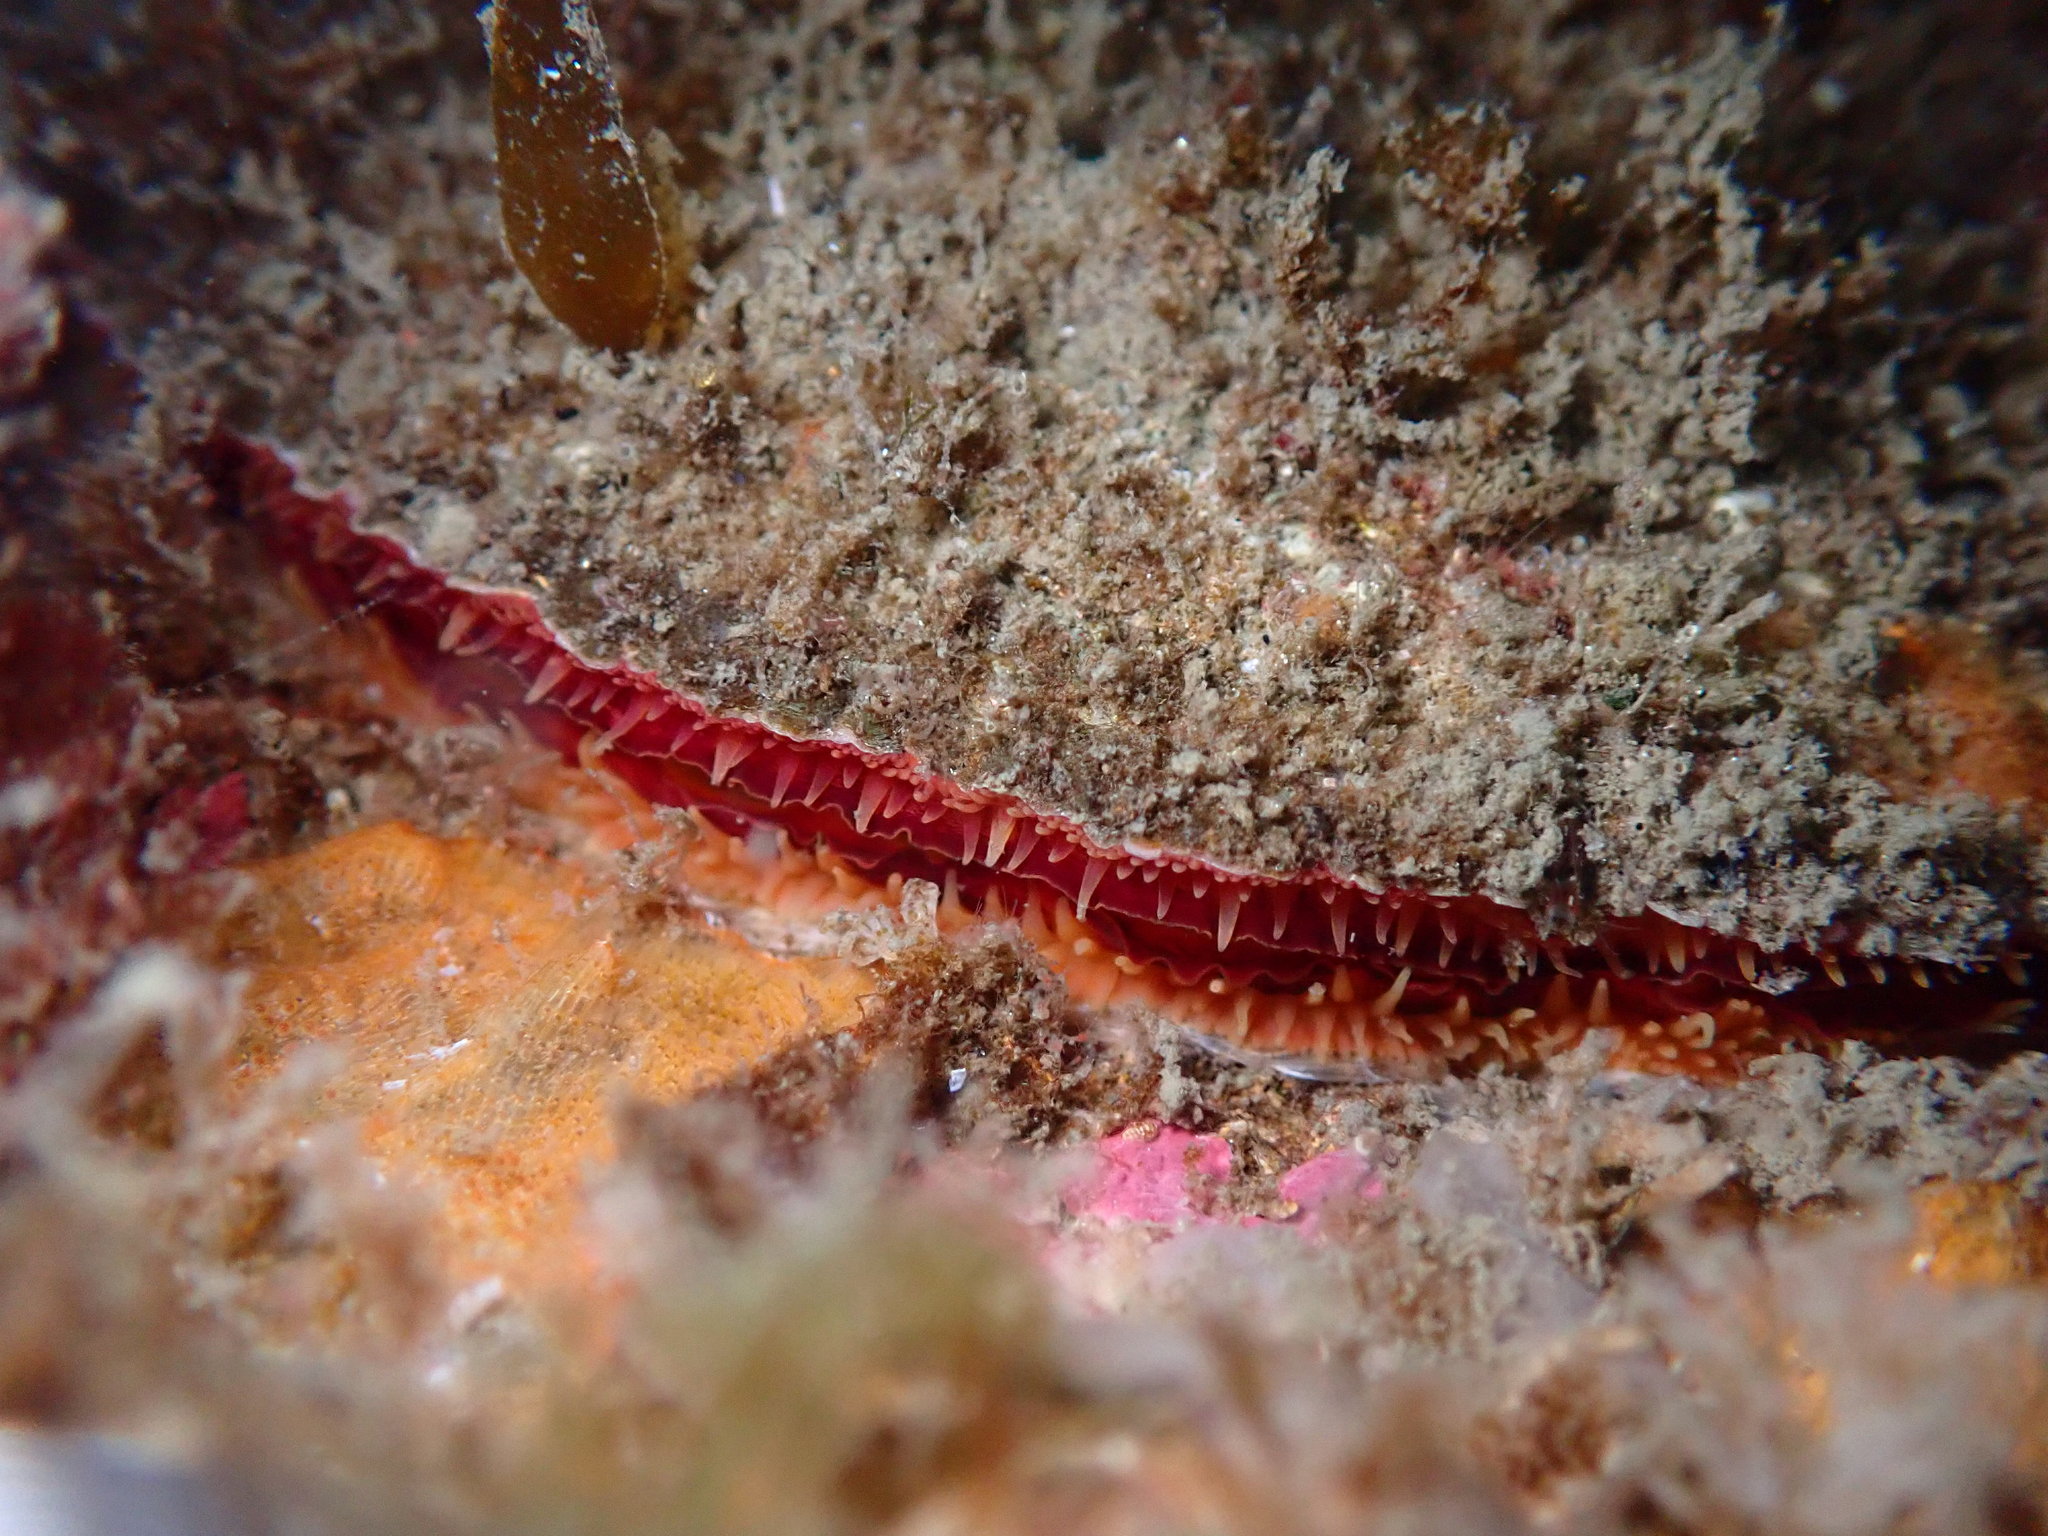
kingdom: Animalia
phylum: Mollusca
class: Bivalvia
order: Pectinida
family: Anomiidae
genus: Pododesmus
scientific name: Pododesmus macrochisma
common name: Alaska jingle
